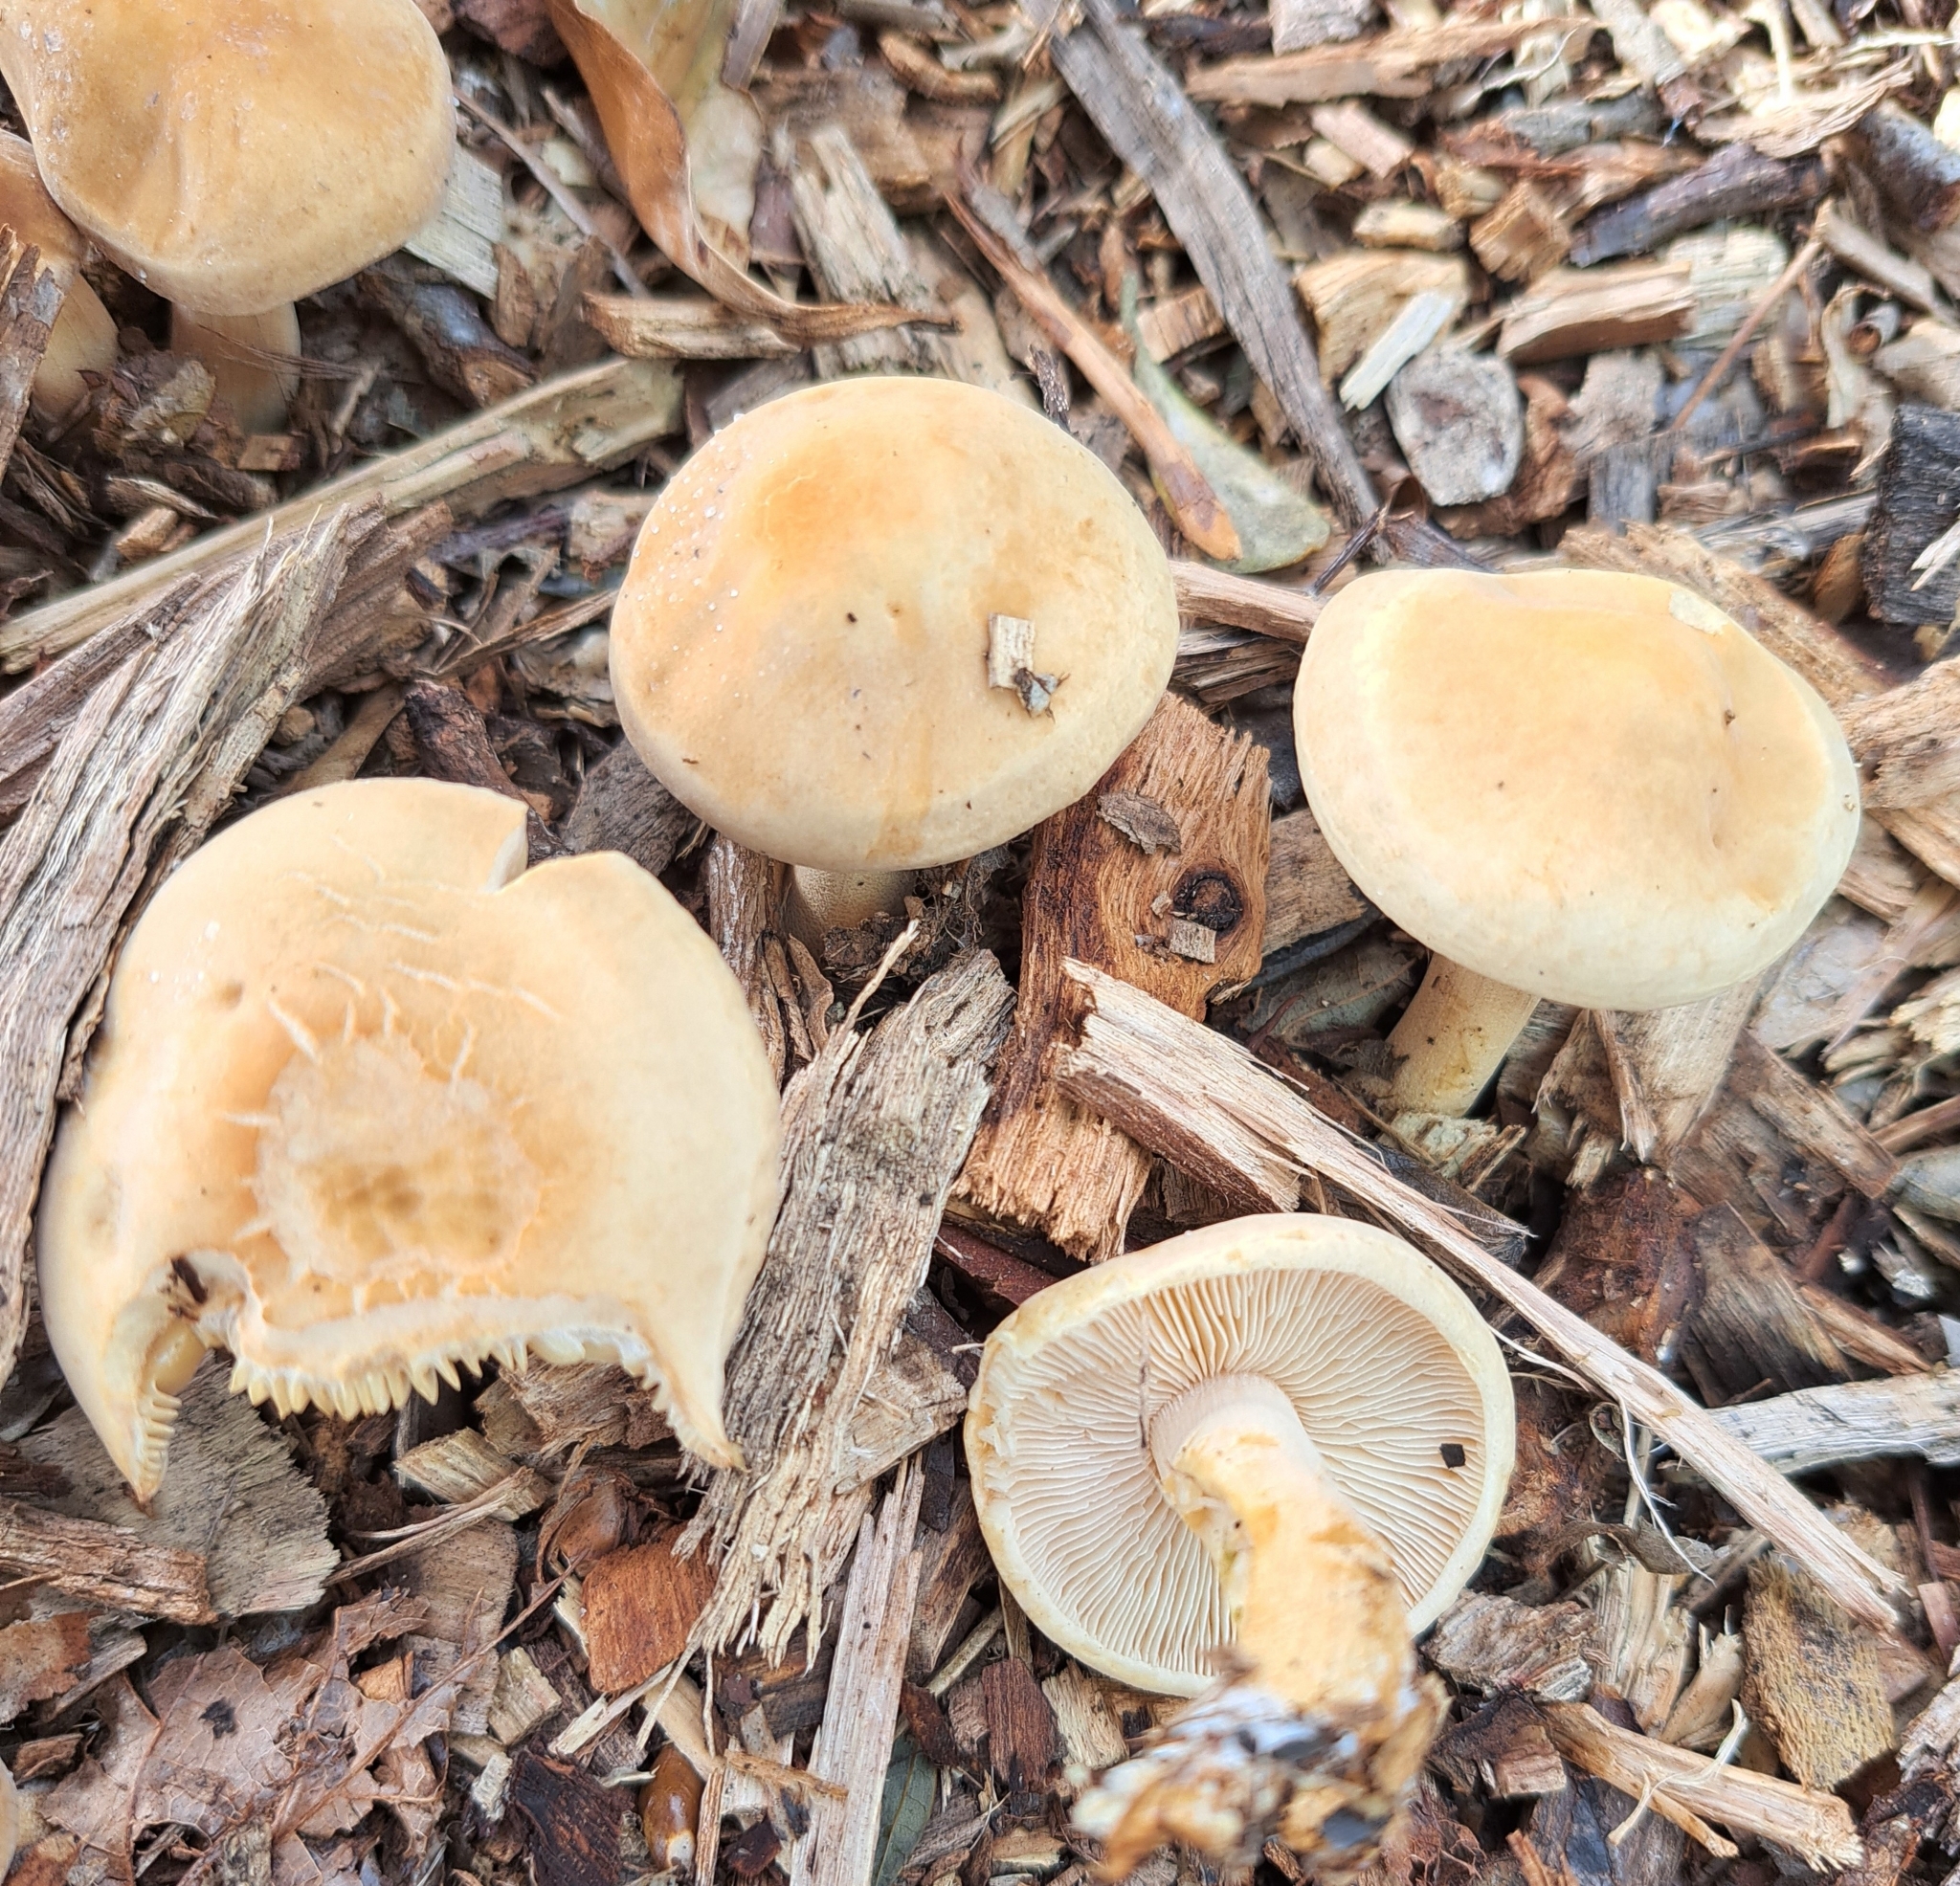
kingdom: Fungi
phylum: Basidiomycota
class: Agaricomycetes
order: Agaricales
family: Strophariaceae
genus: Agrocybe
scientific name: Agrocybe putaminum
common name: Mulch fieldcap
